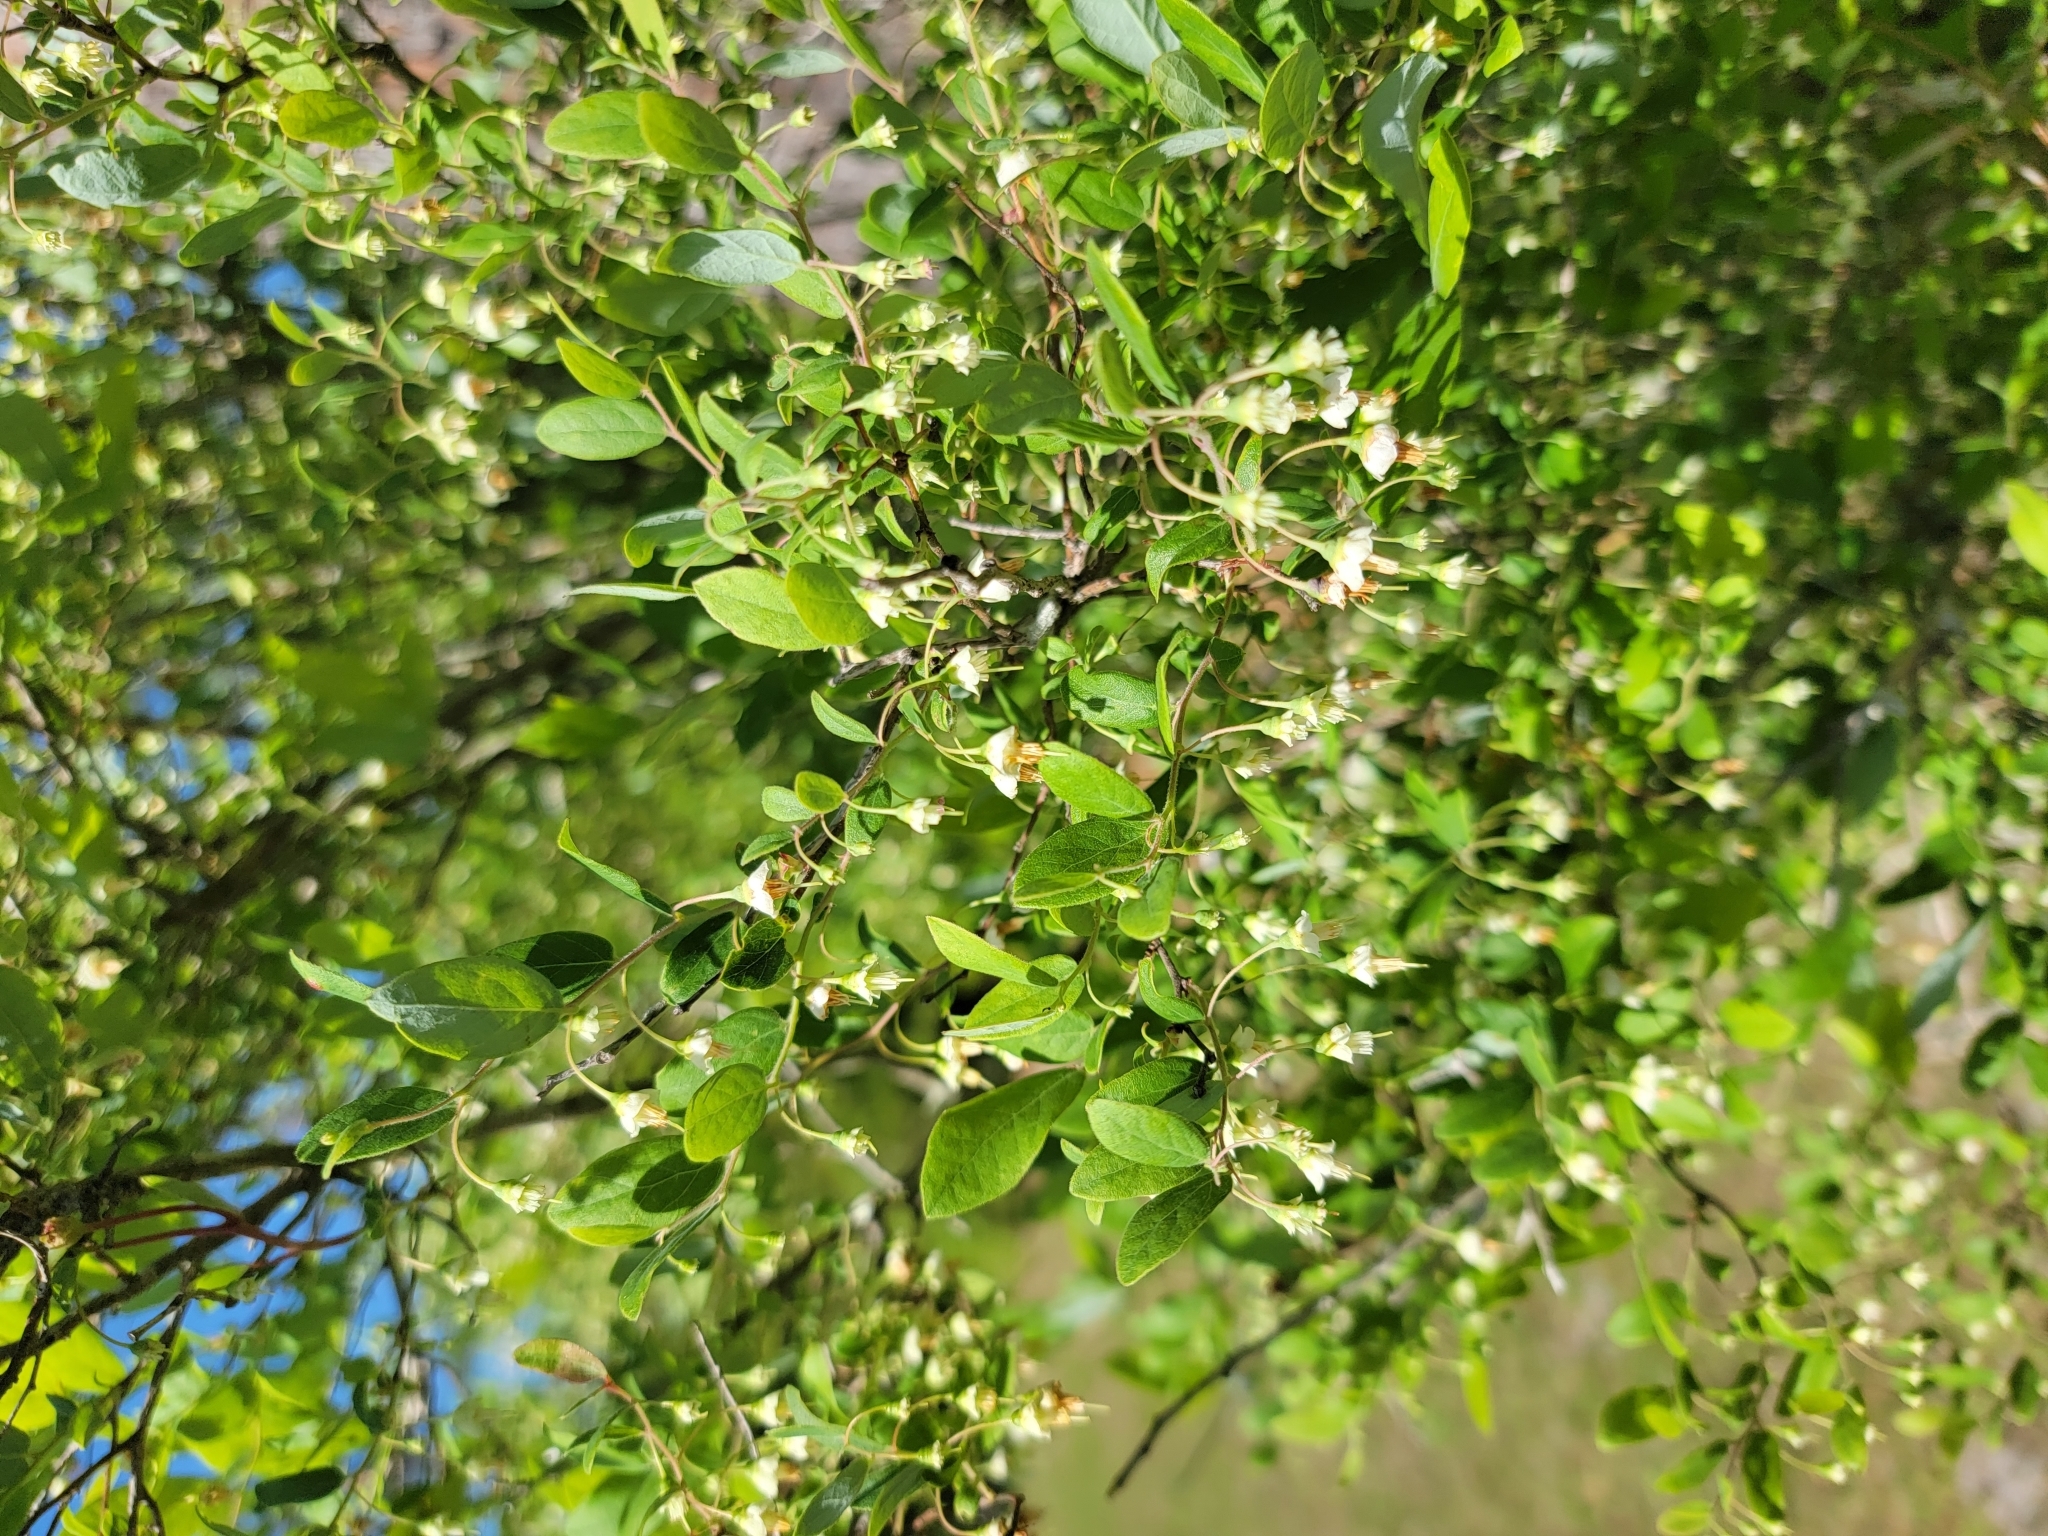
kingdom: Plantae
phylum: Tracheophyta
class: Magnoliopsida
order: Ericales
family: Ericaceae
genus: Vaccinium
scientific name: Vaccinium stamineum
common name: Deerberry
